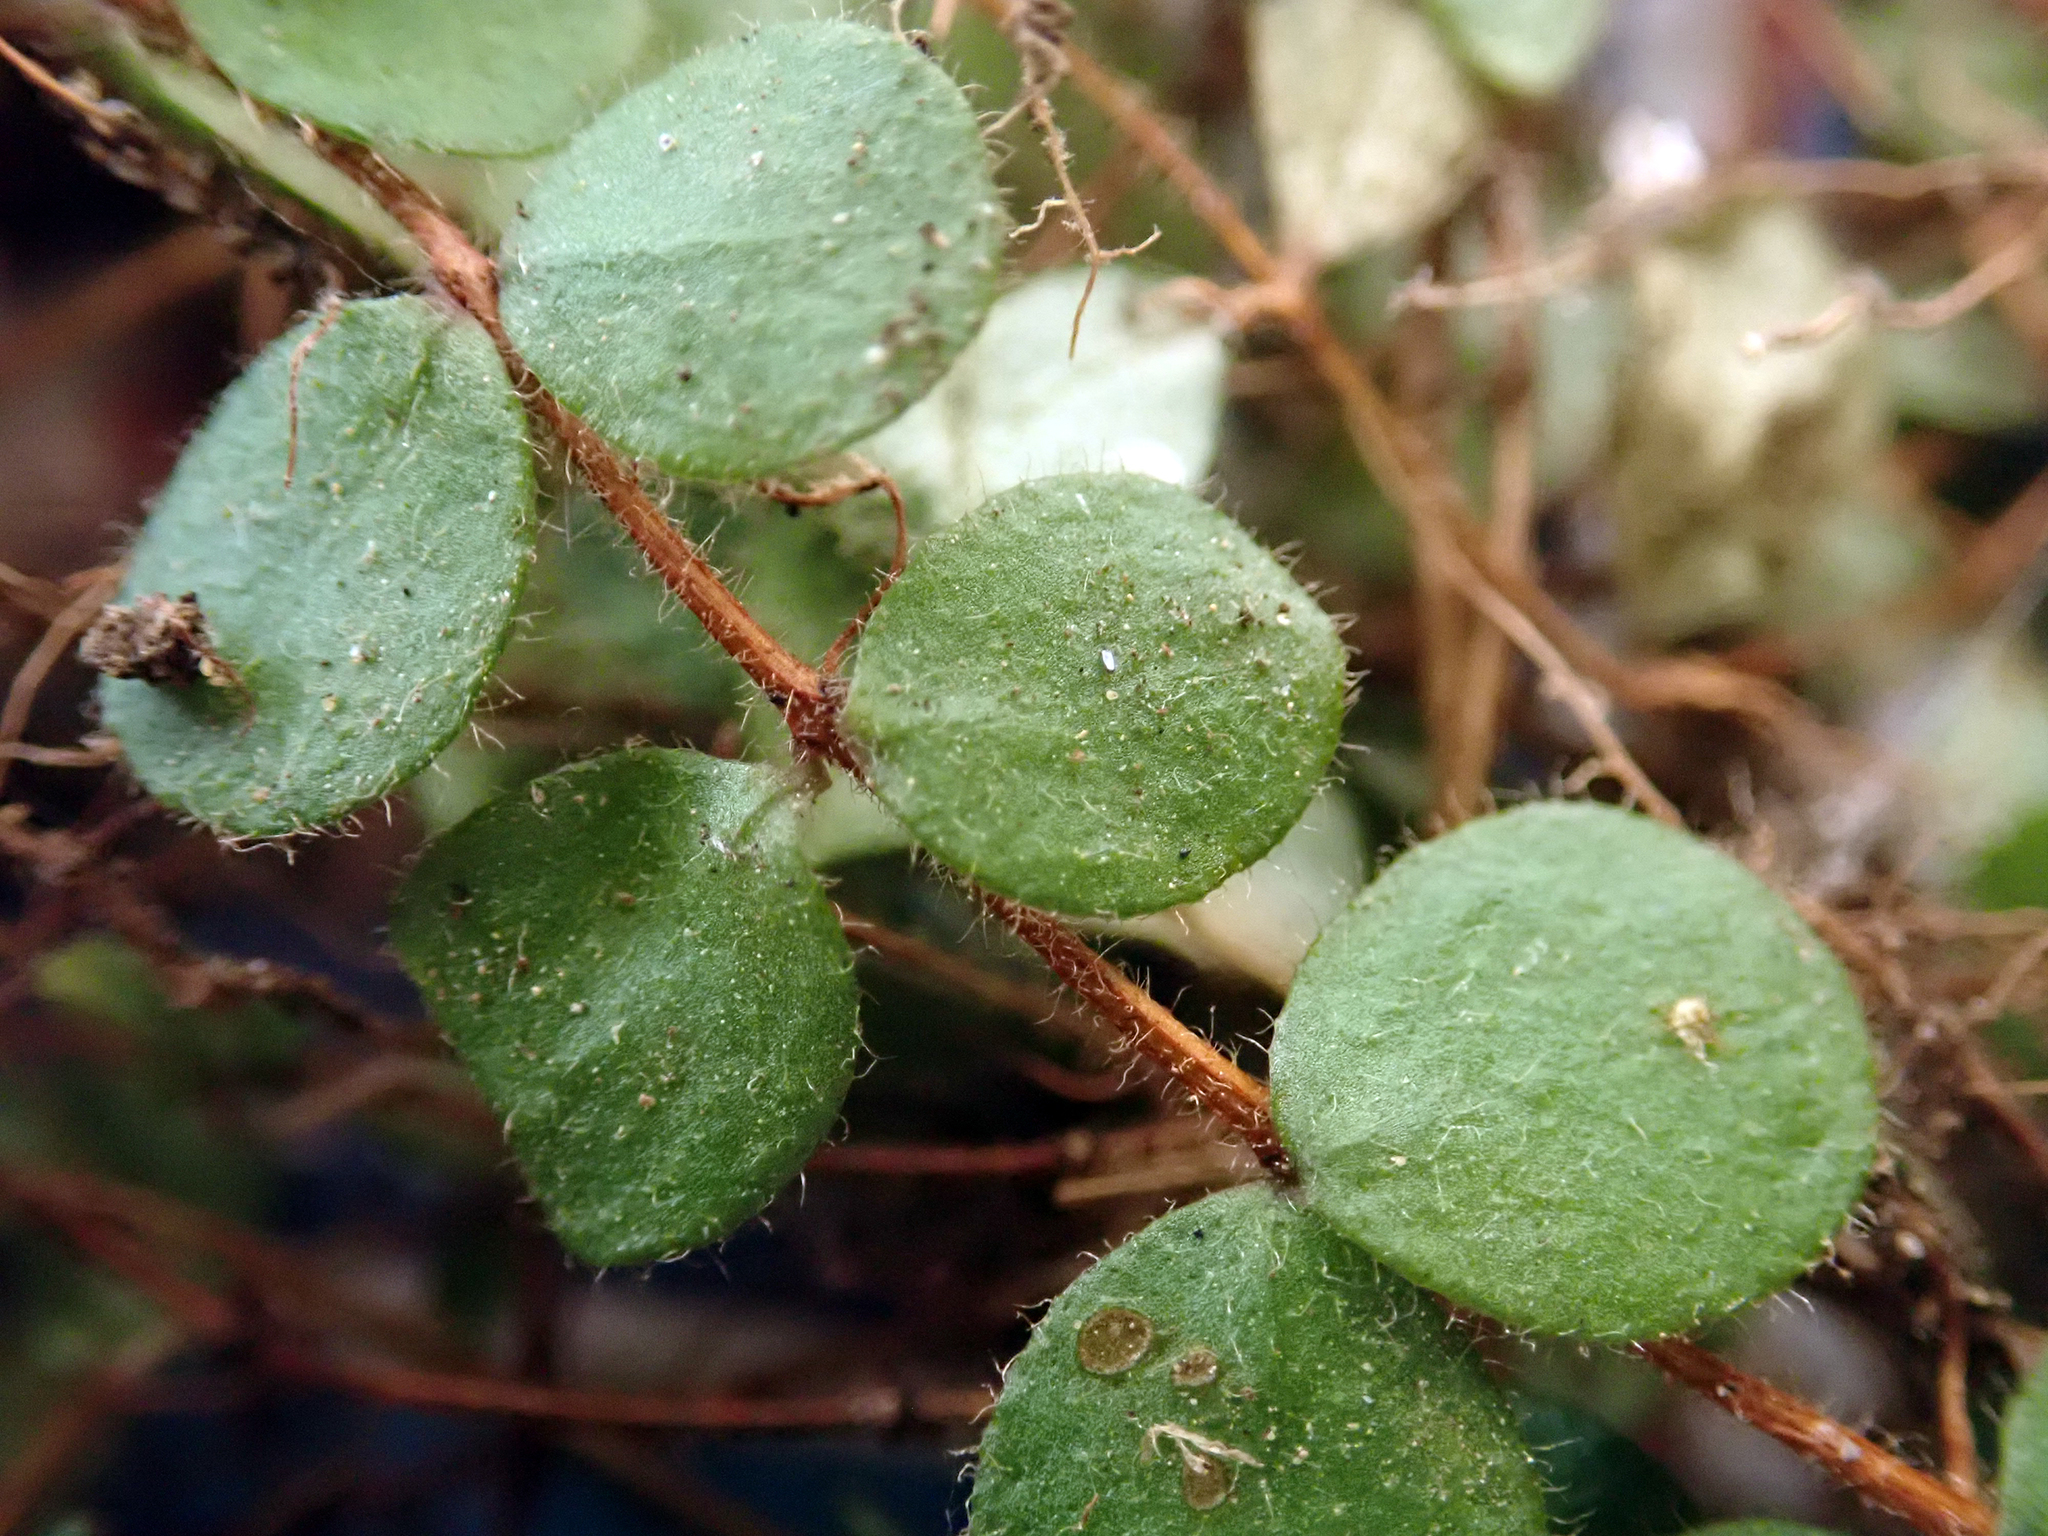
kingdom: Plantae
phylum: Tracheophyta
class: Magnoliopsida
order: Myrtales
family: Myrtaceae
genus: Metrosideros
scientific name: Metrosideros carminea
